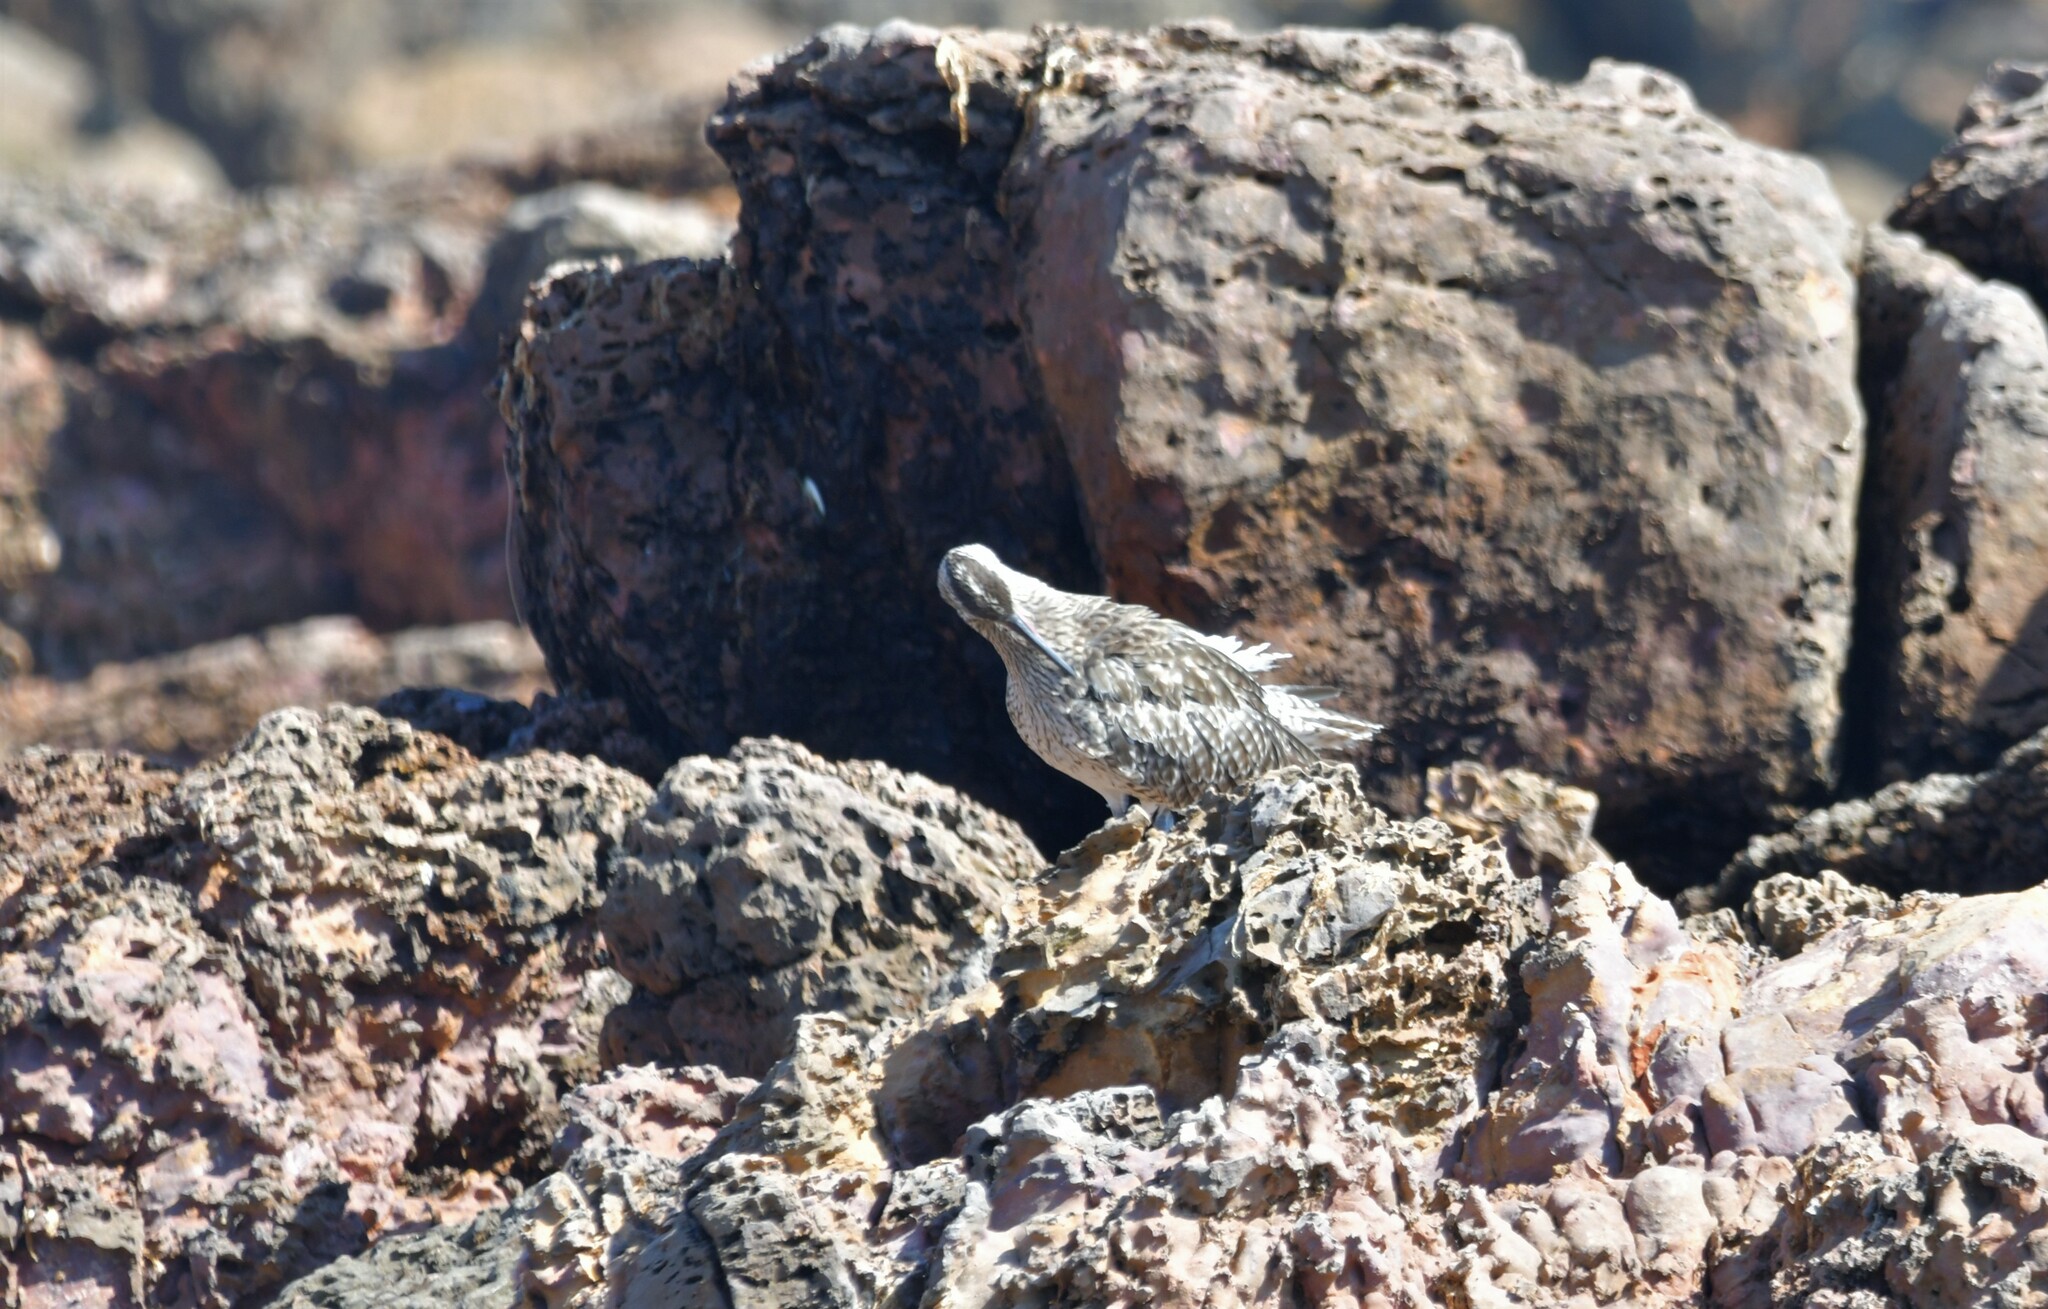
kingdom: Animalia
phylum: Chordata
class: Aves
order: Charadriiformes
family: Scolopacidae
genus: Numenius
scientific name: Numenius phaeopus
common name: Whimbrel
